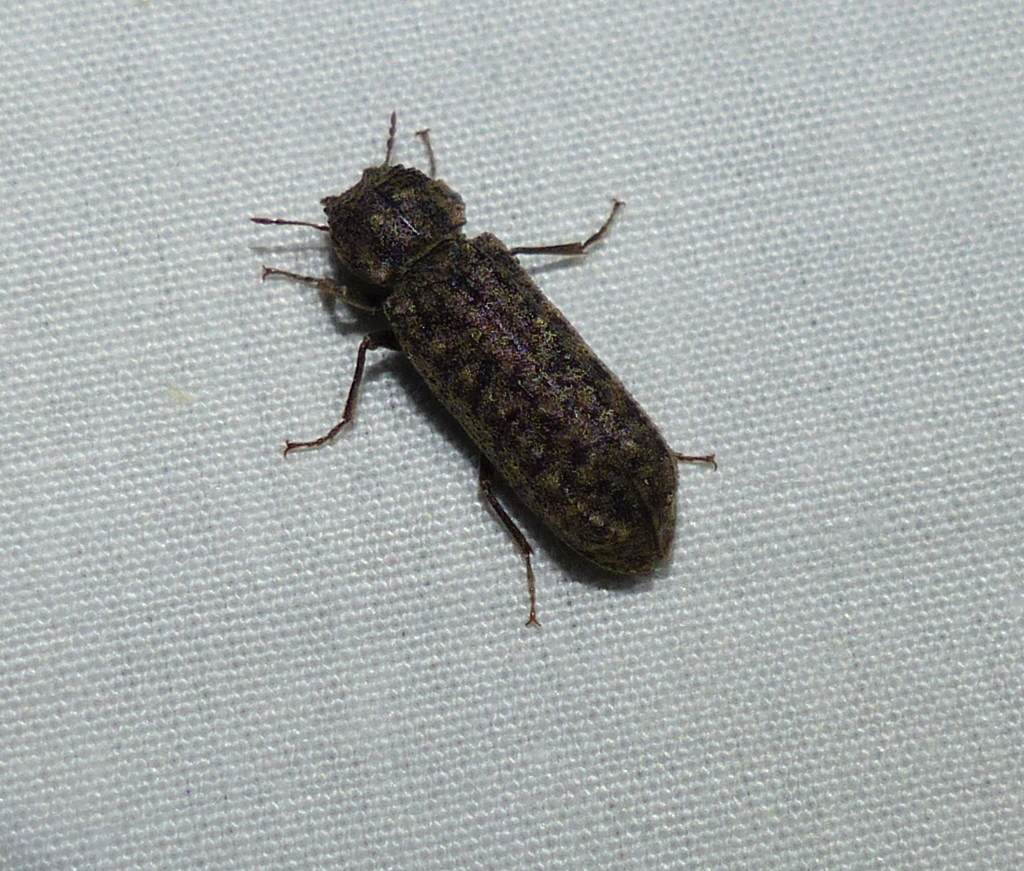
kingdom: Animalia
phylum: Arthropoda
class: Insecta
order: Coleoptera
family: Bostrichidae
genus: Lichenophanes
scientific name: Lichenophanes bicornis
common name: Two-horned powder-post beetle
